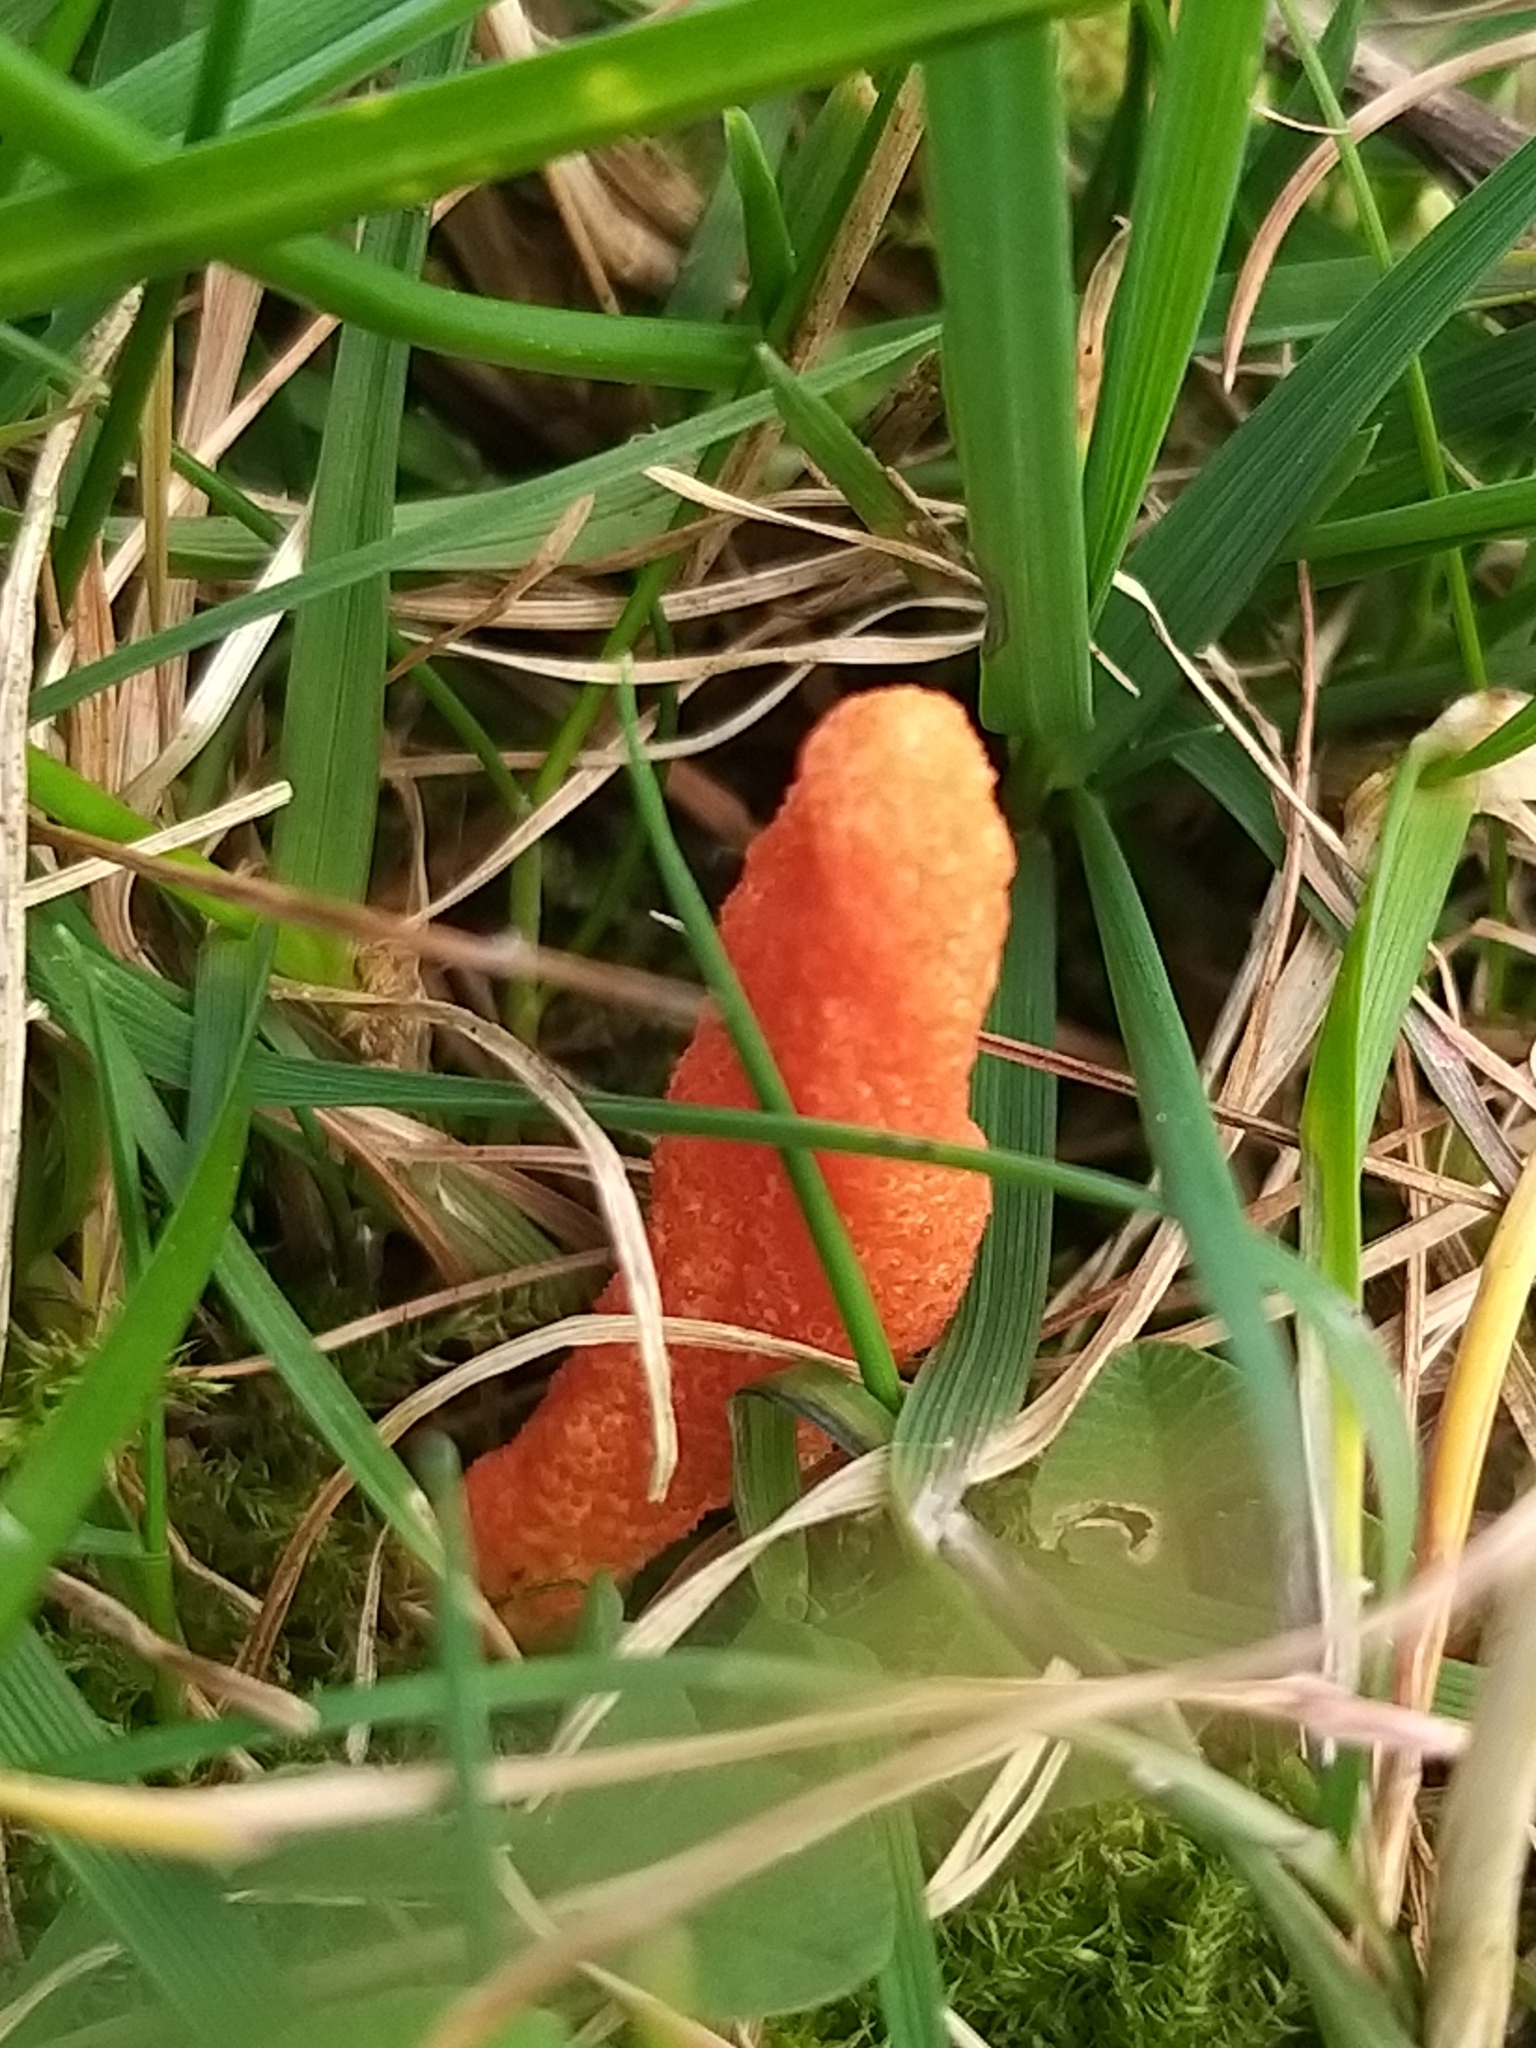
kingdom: Fungi
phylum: Ascomycota
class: Sordariomycetes
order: Hypocreales
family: Cordycipitaceae
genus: Cordyceps
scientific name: Cordyceps militaris
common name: Scarlet caterpillar fungus
